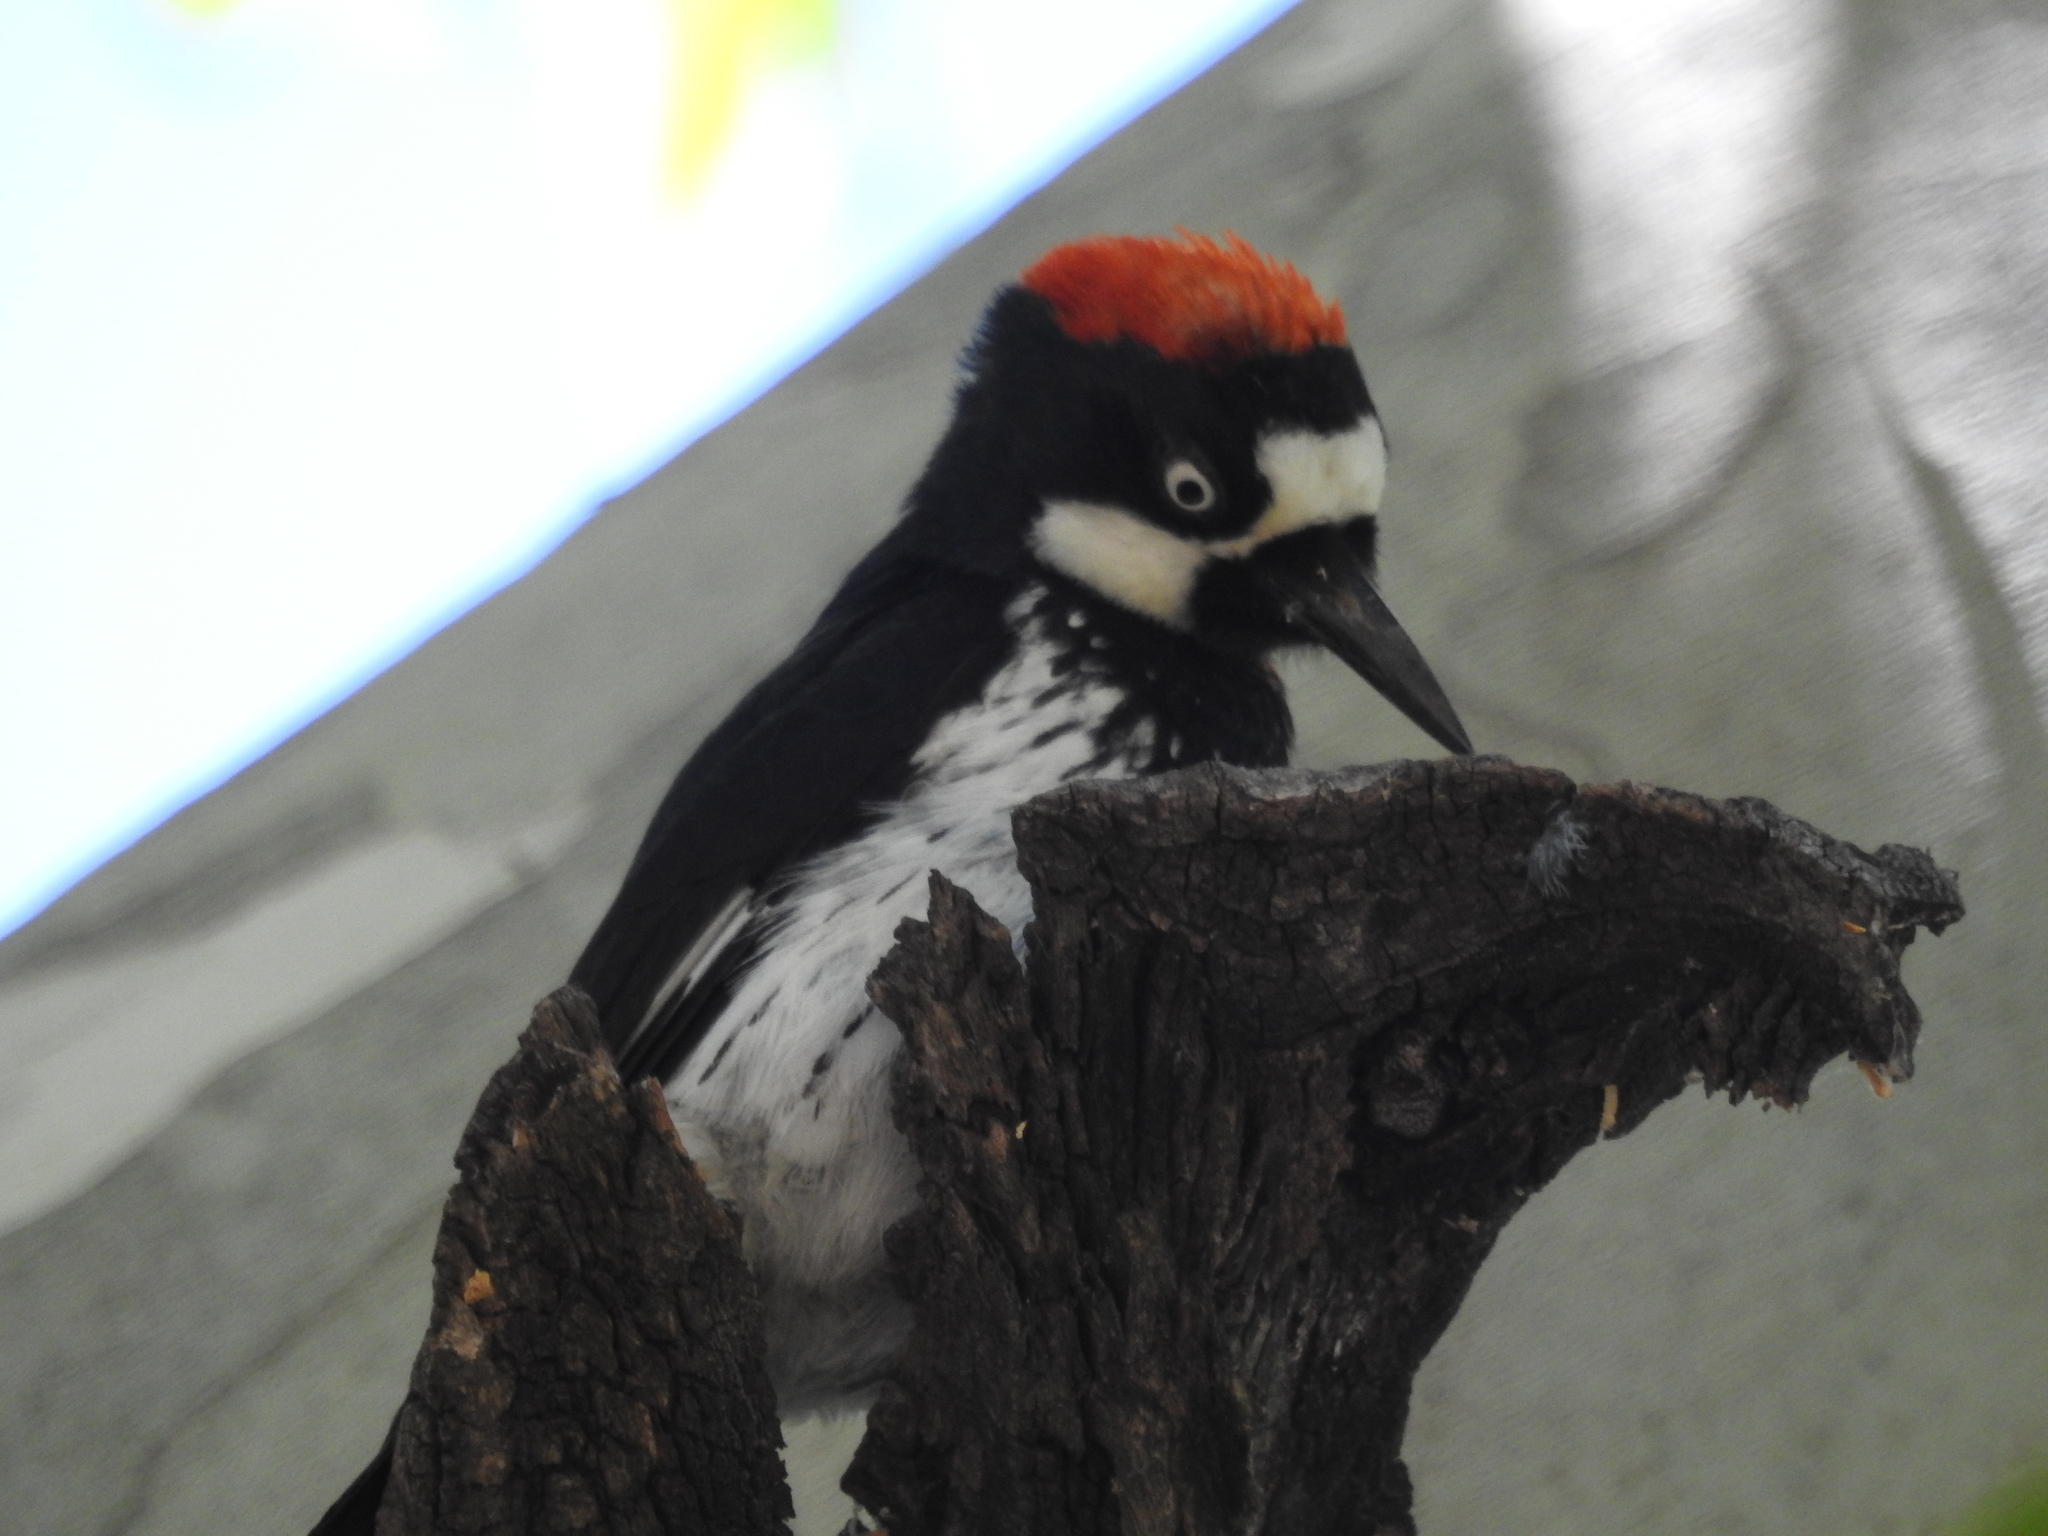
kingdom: Animalia
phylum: Chordata
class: Aves
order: Piciformes
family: Picidae
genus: Melanerpes
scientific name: Melanerpes formicivorus
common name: Acorn woodpecker
